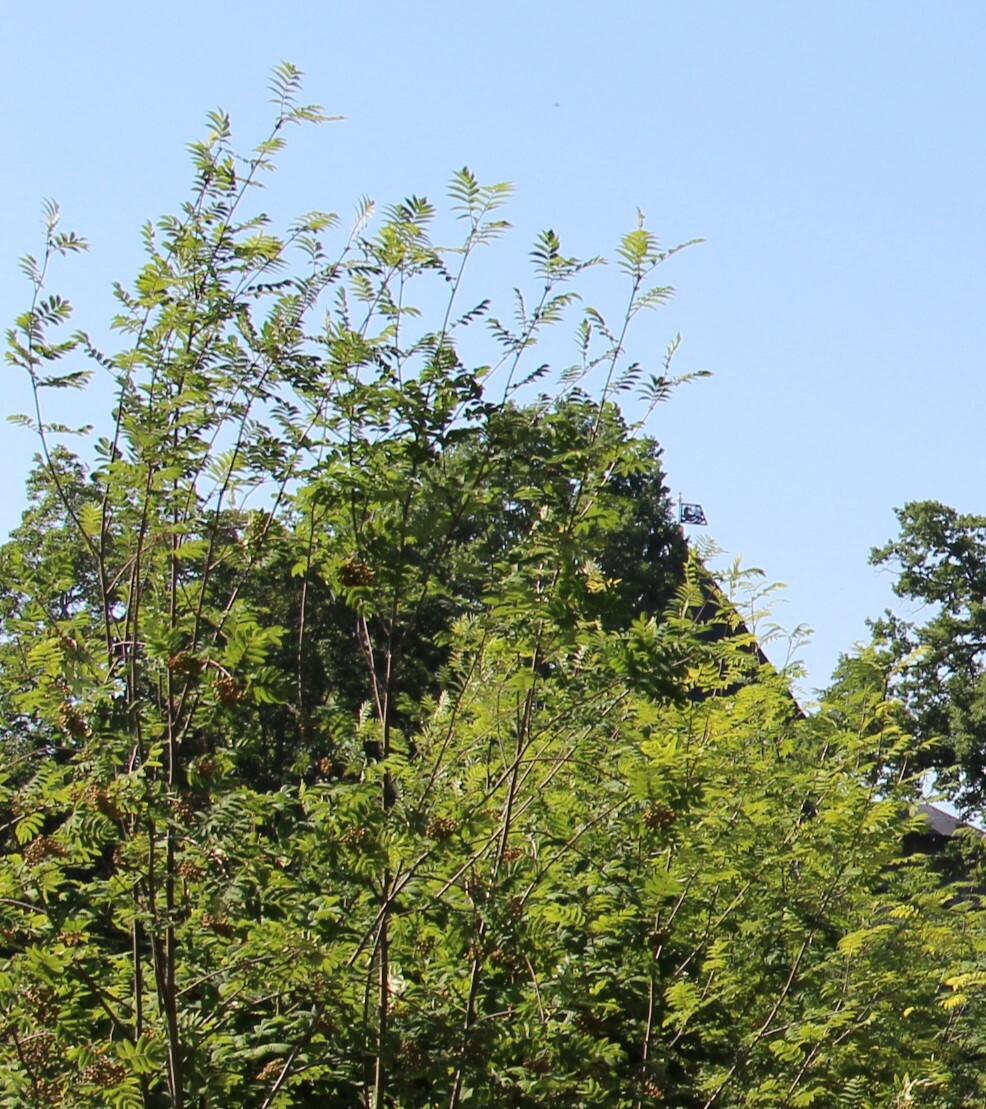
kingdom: Plantae
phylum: Tracheophyta
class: Magnoliopsida
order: Rosales
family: Rosaceae
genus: Sorbus
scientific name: Sorbus aucuparia
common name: Rowan
